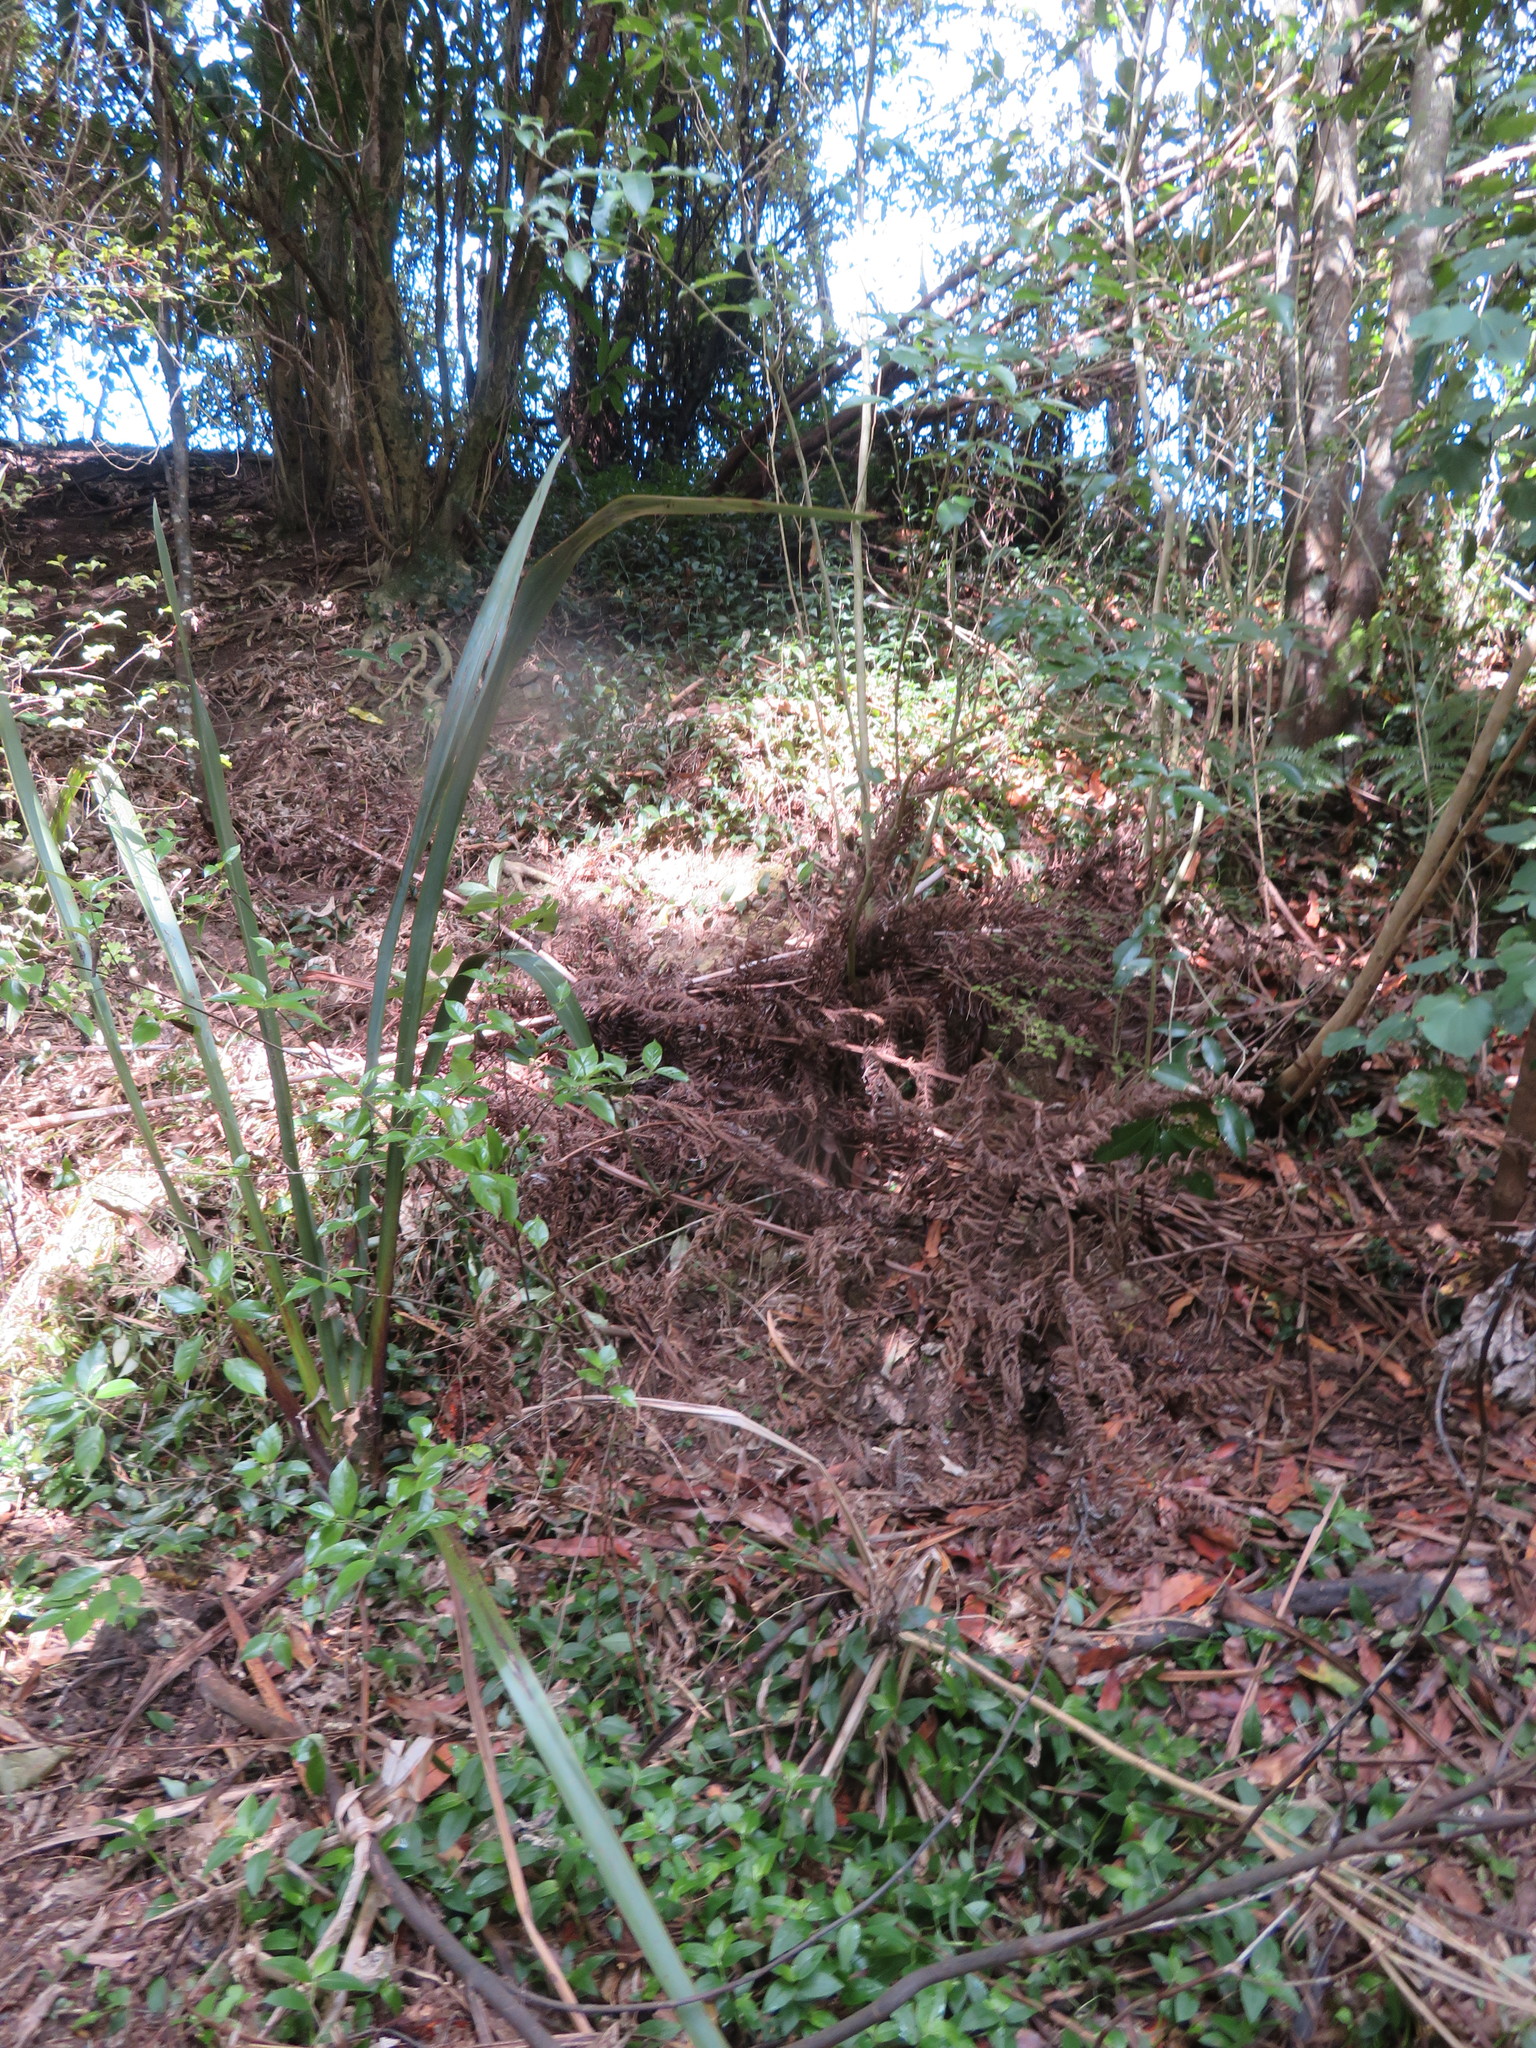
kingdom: Plantae
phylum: Tracheophyta
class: Liliopsida
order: Commelinales
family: Commelinaceae
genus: Tradescantia
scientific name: Tradescantia fluminensis
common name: Wandering-jew
